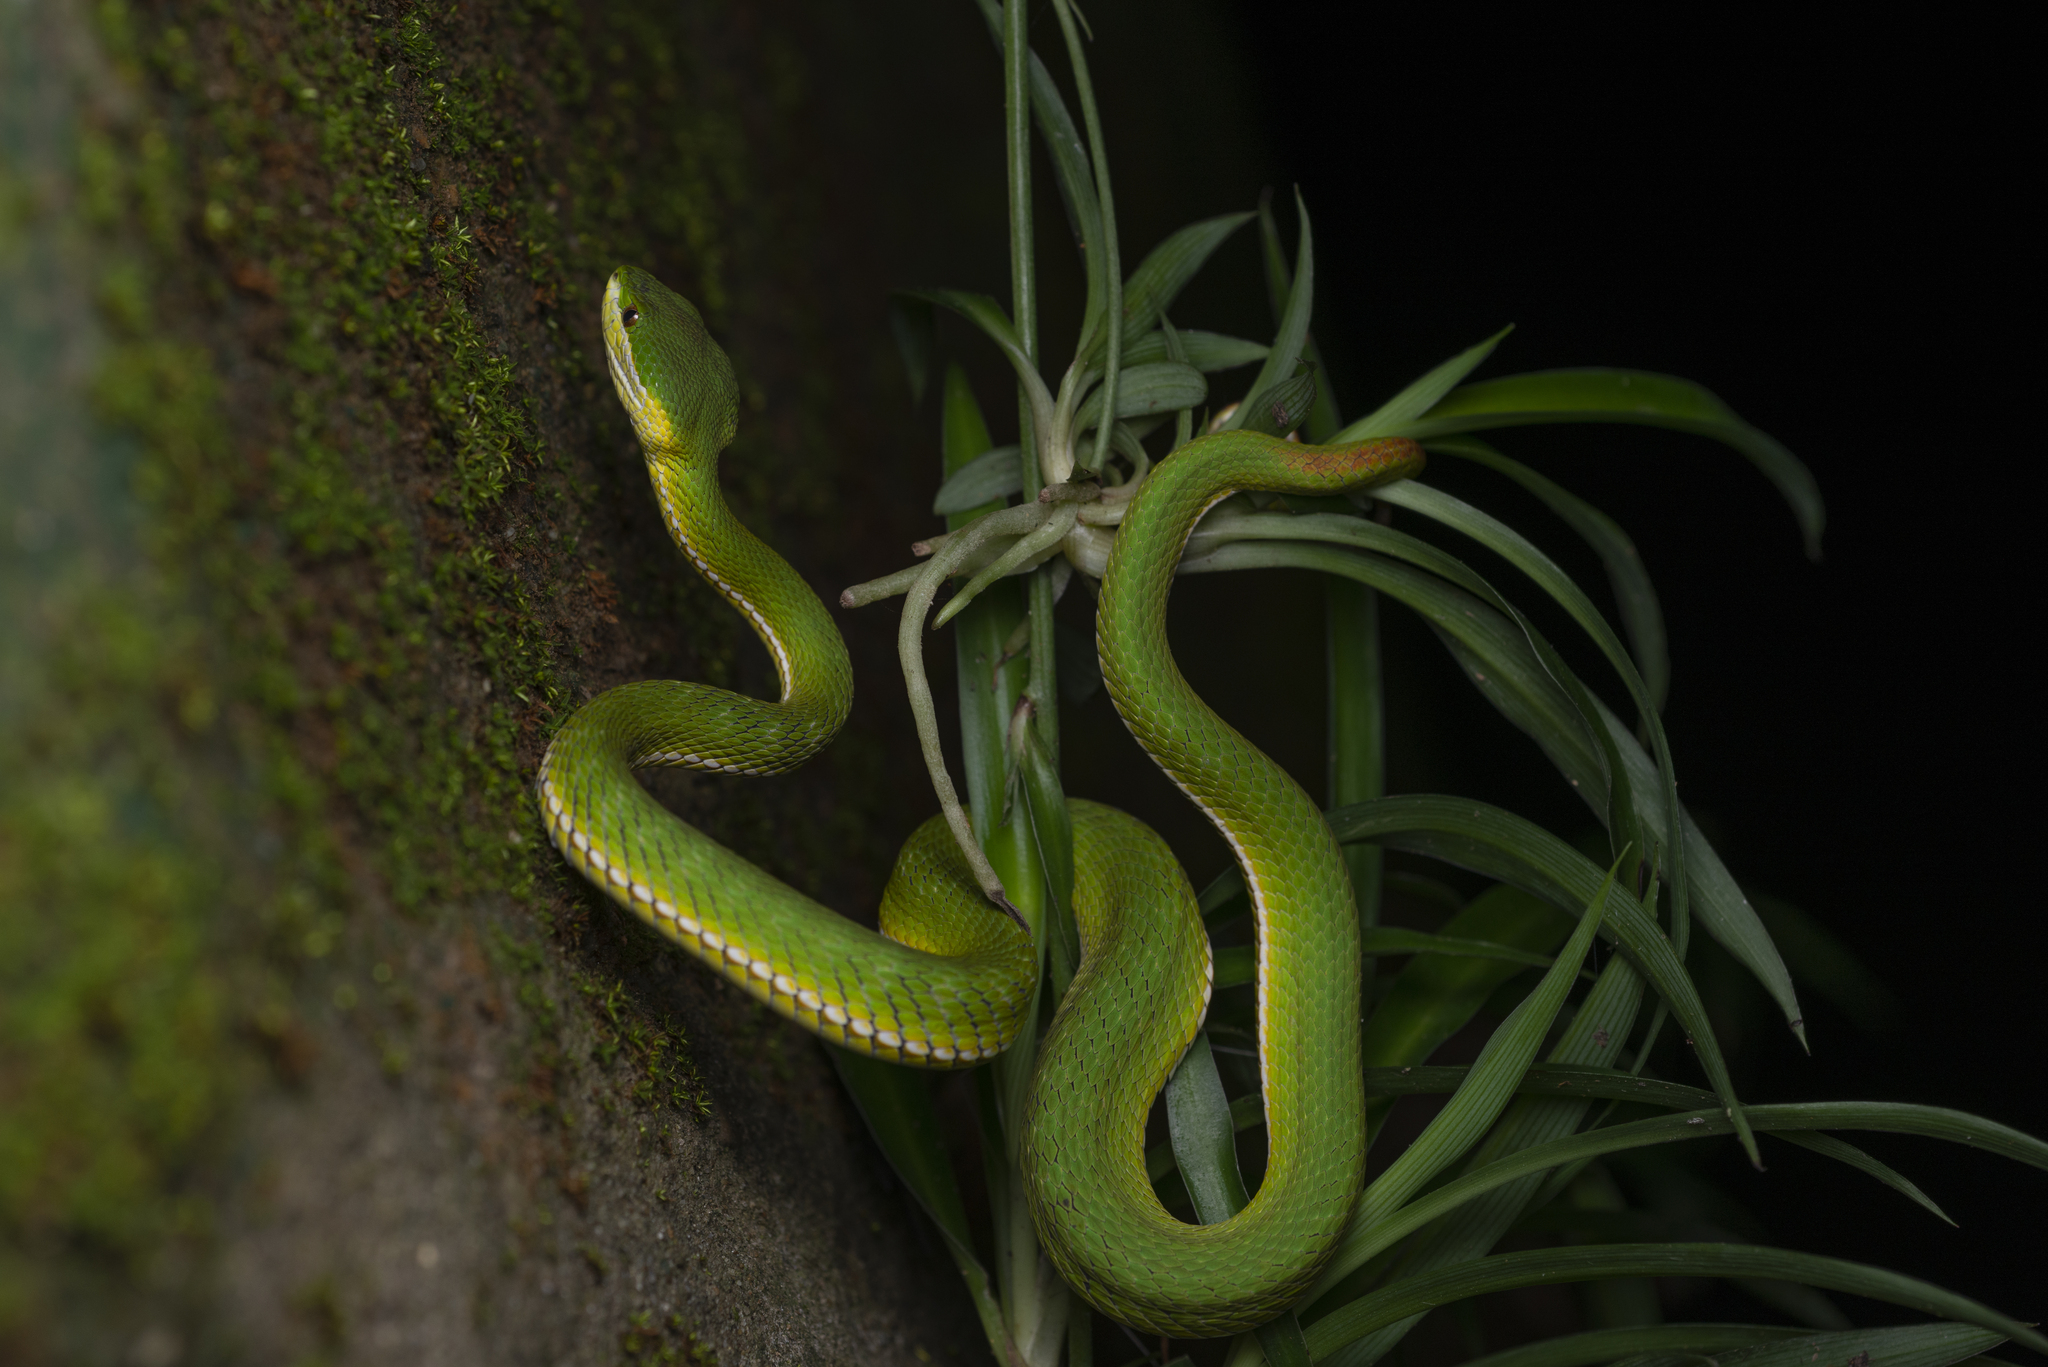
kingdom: Animalia
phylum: Chordata
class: Squamata
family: Viperidae
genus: Trimeresurus
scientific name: Trimeresurus albolabris
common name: White-lipped pitviper
